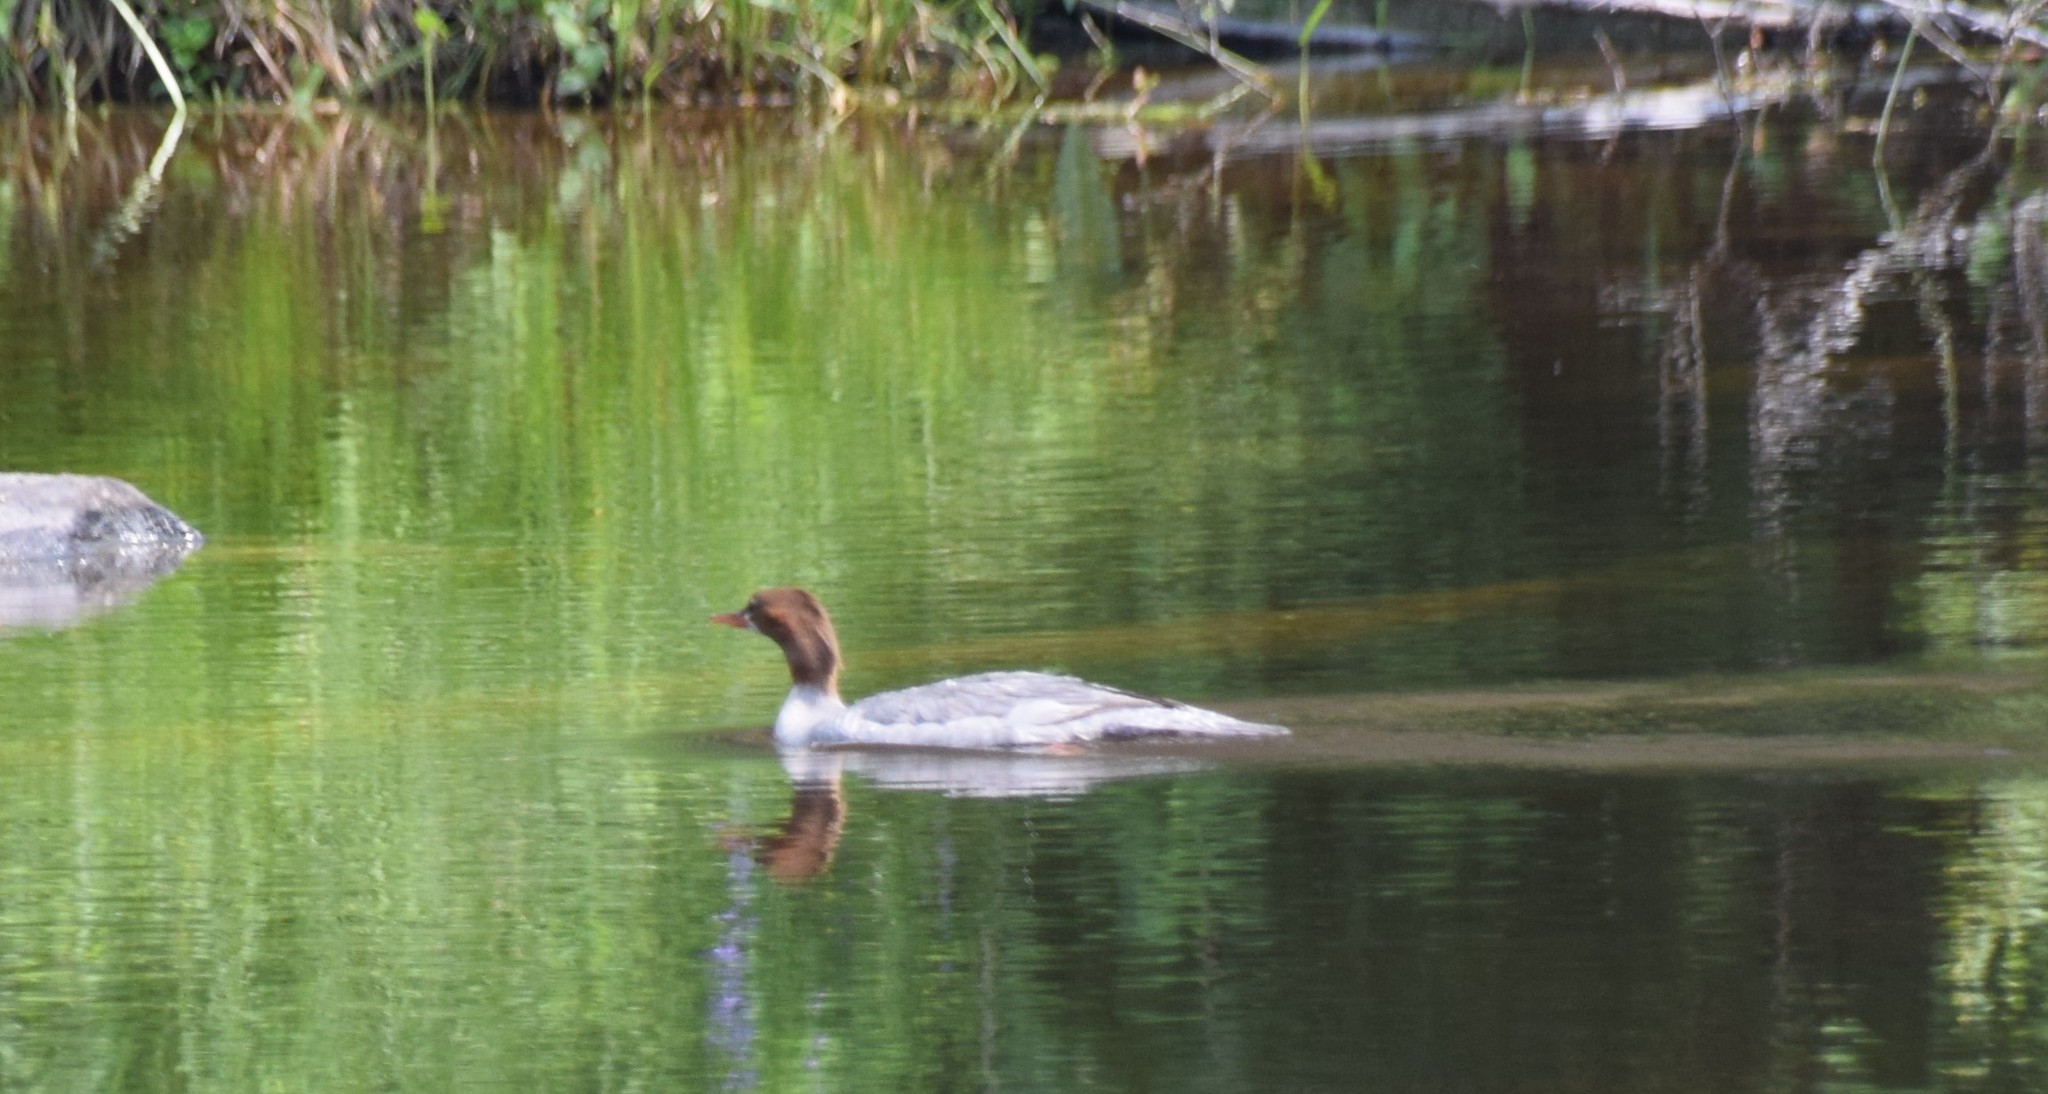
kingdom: Animalia
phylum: Chordata
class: Aves
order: Anseriformes
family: Anatidae
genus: Mergus
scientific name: Mergus merganser
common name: Common merganser
